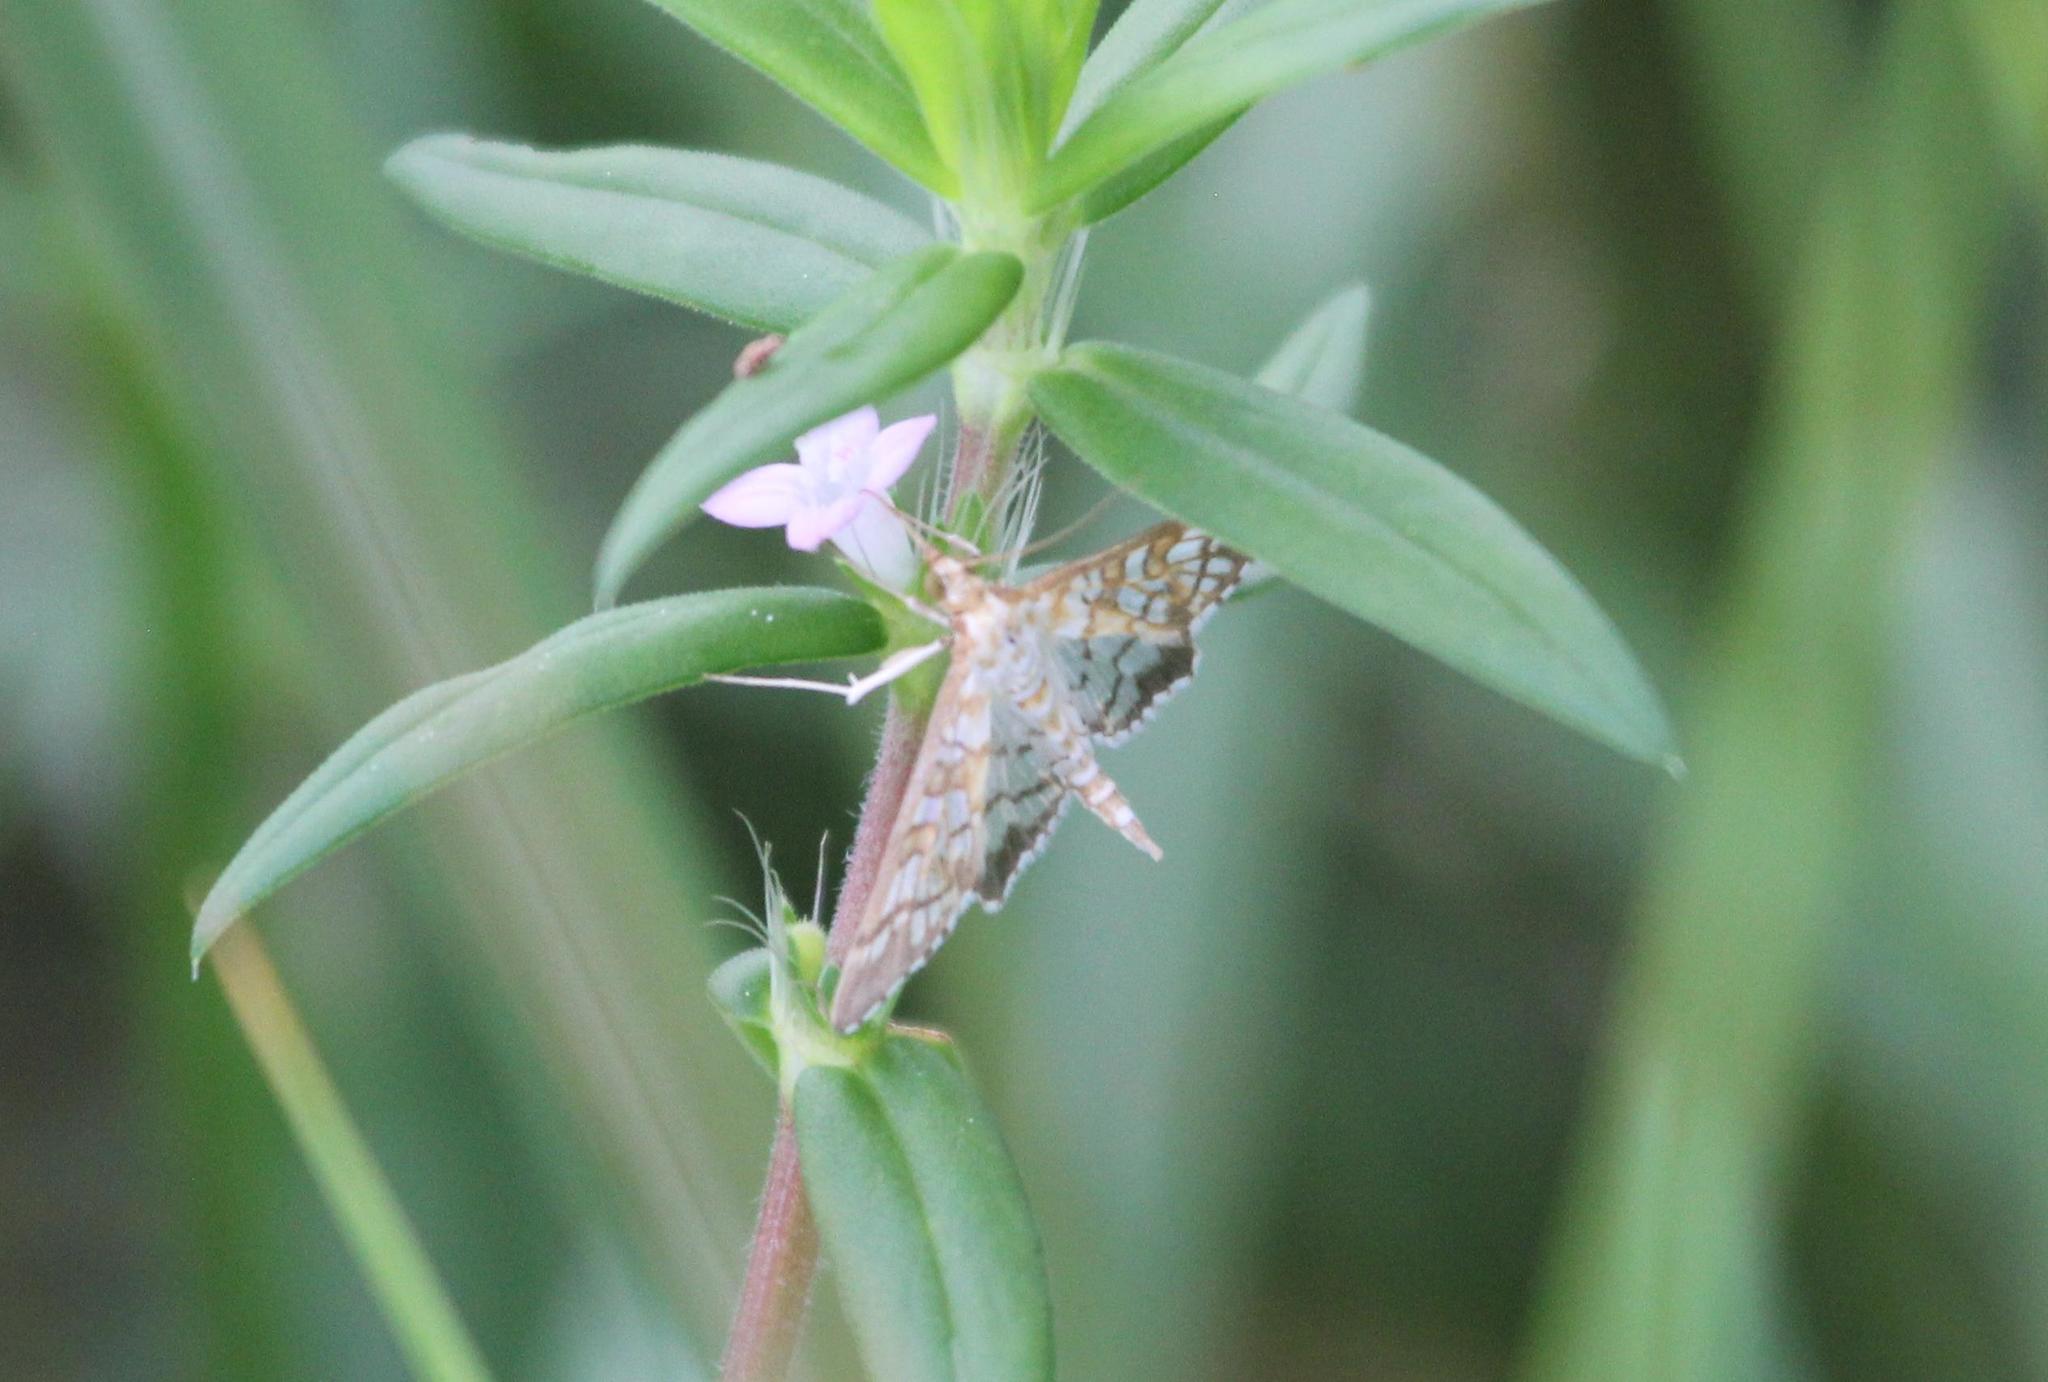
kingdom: Animalia
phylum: Arthropoda
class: Insecta
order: Lepidoptera
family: Crambidae
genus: Epipagis
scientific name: Epipagis fenestralis
